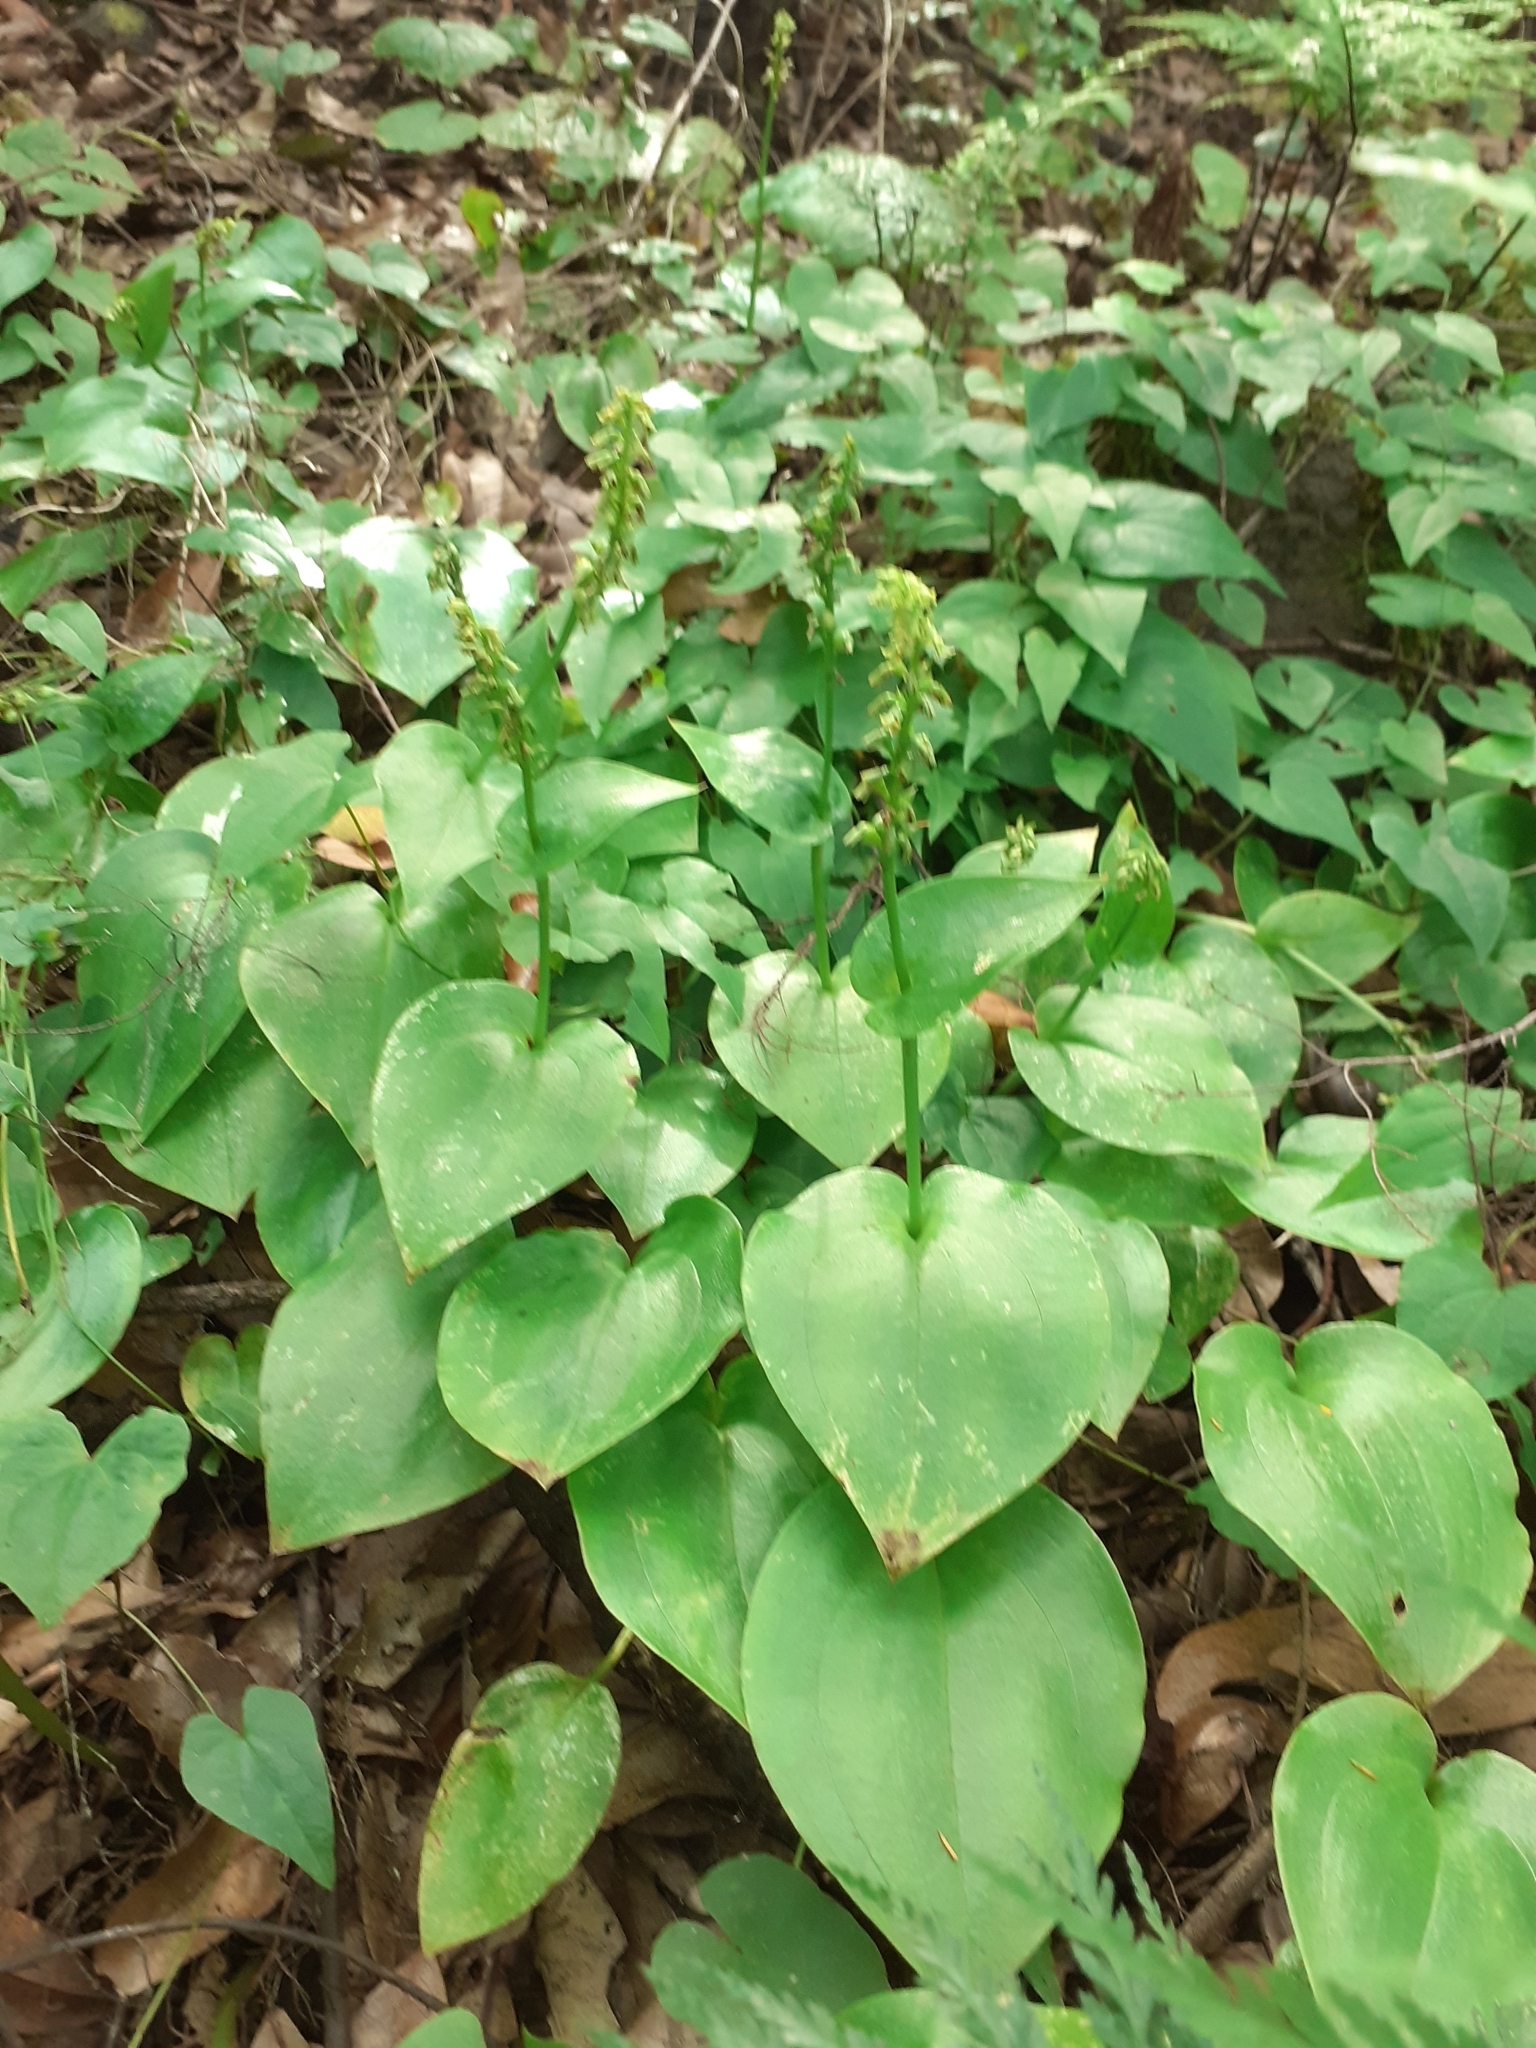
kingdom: Plantae
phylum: Tracheophyta
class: Liliopsida
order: Asparagales
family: Orchidaceae
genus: Gennaria
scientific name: Gennaria diphylla
